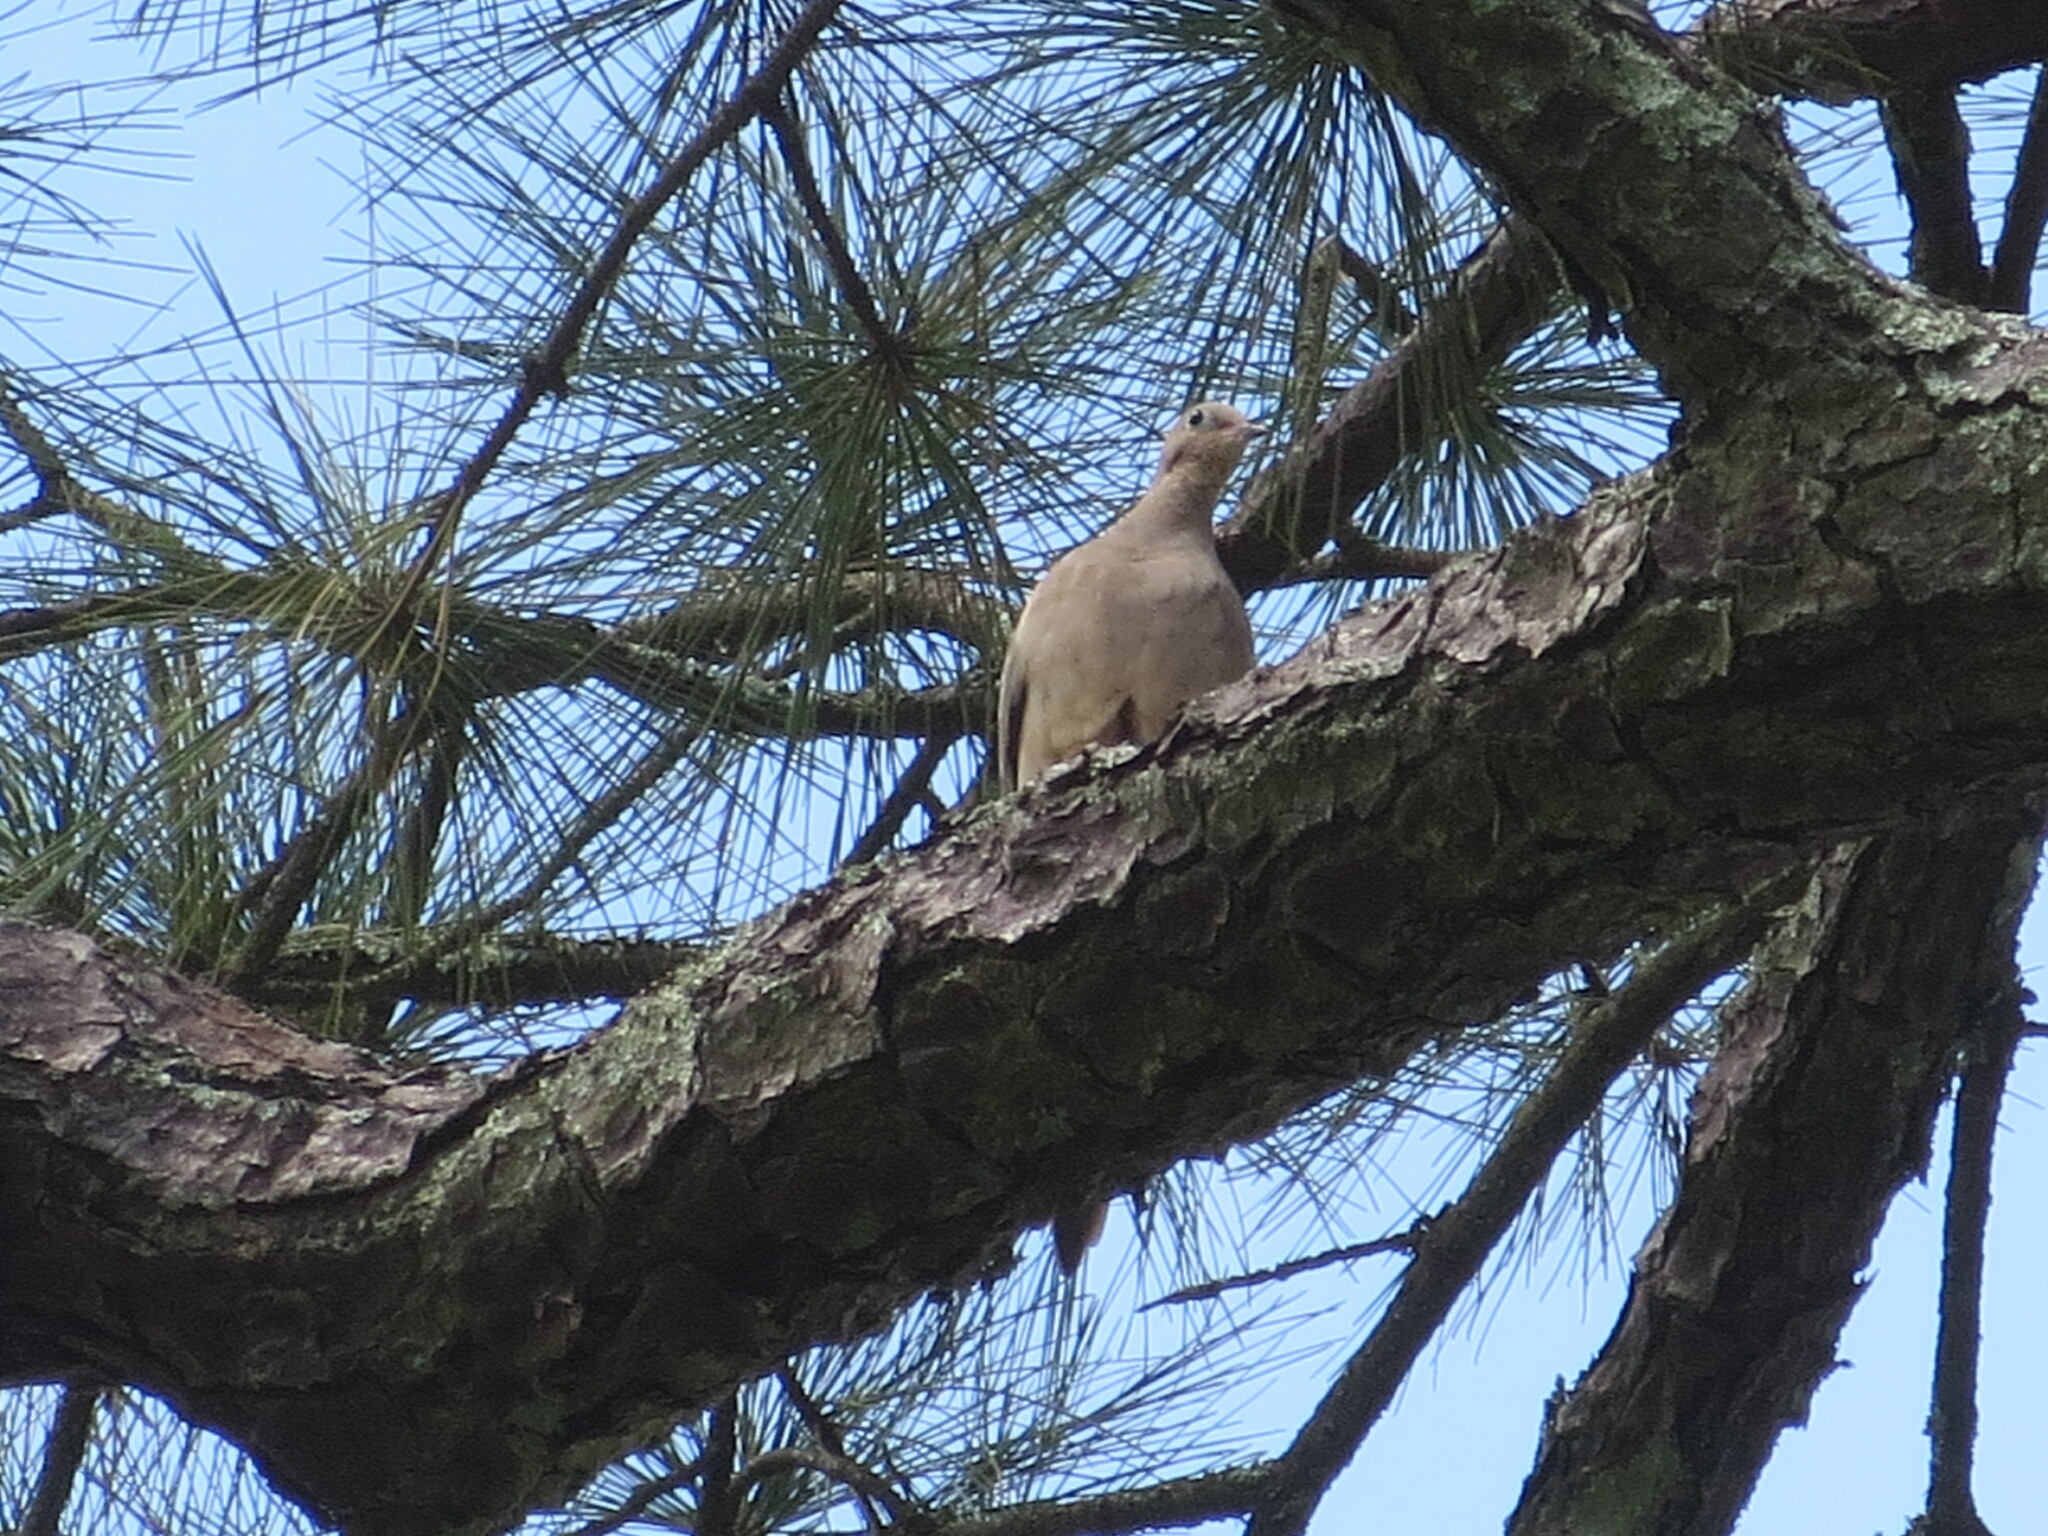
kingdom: Animalia
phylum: Chordata
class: Aves
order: Columbiformes
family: Columbidae
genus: Zenaida
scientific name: Zenaida macroura
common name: Mourning dove
